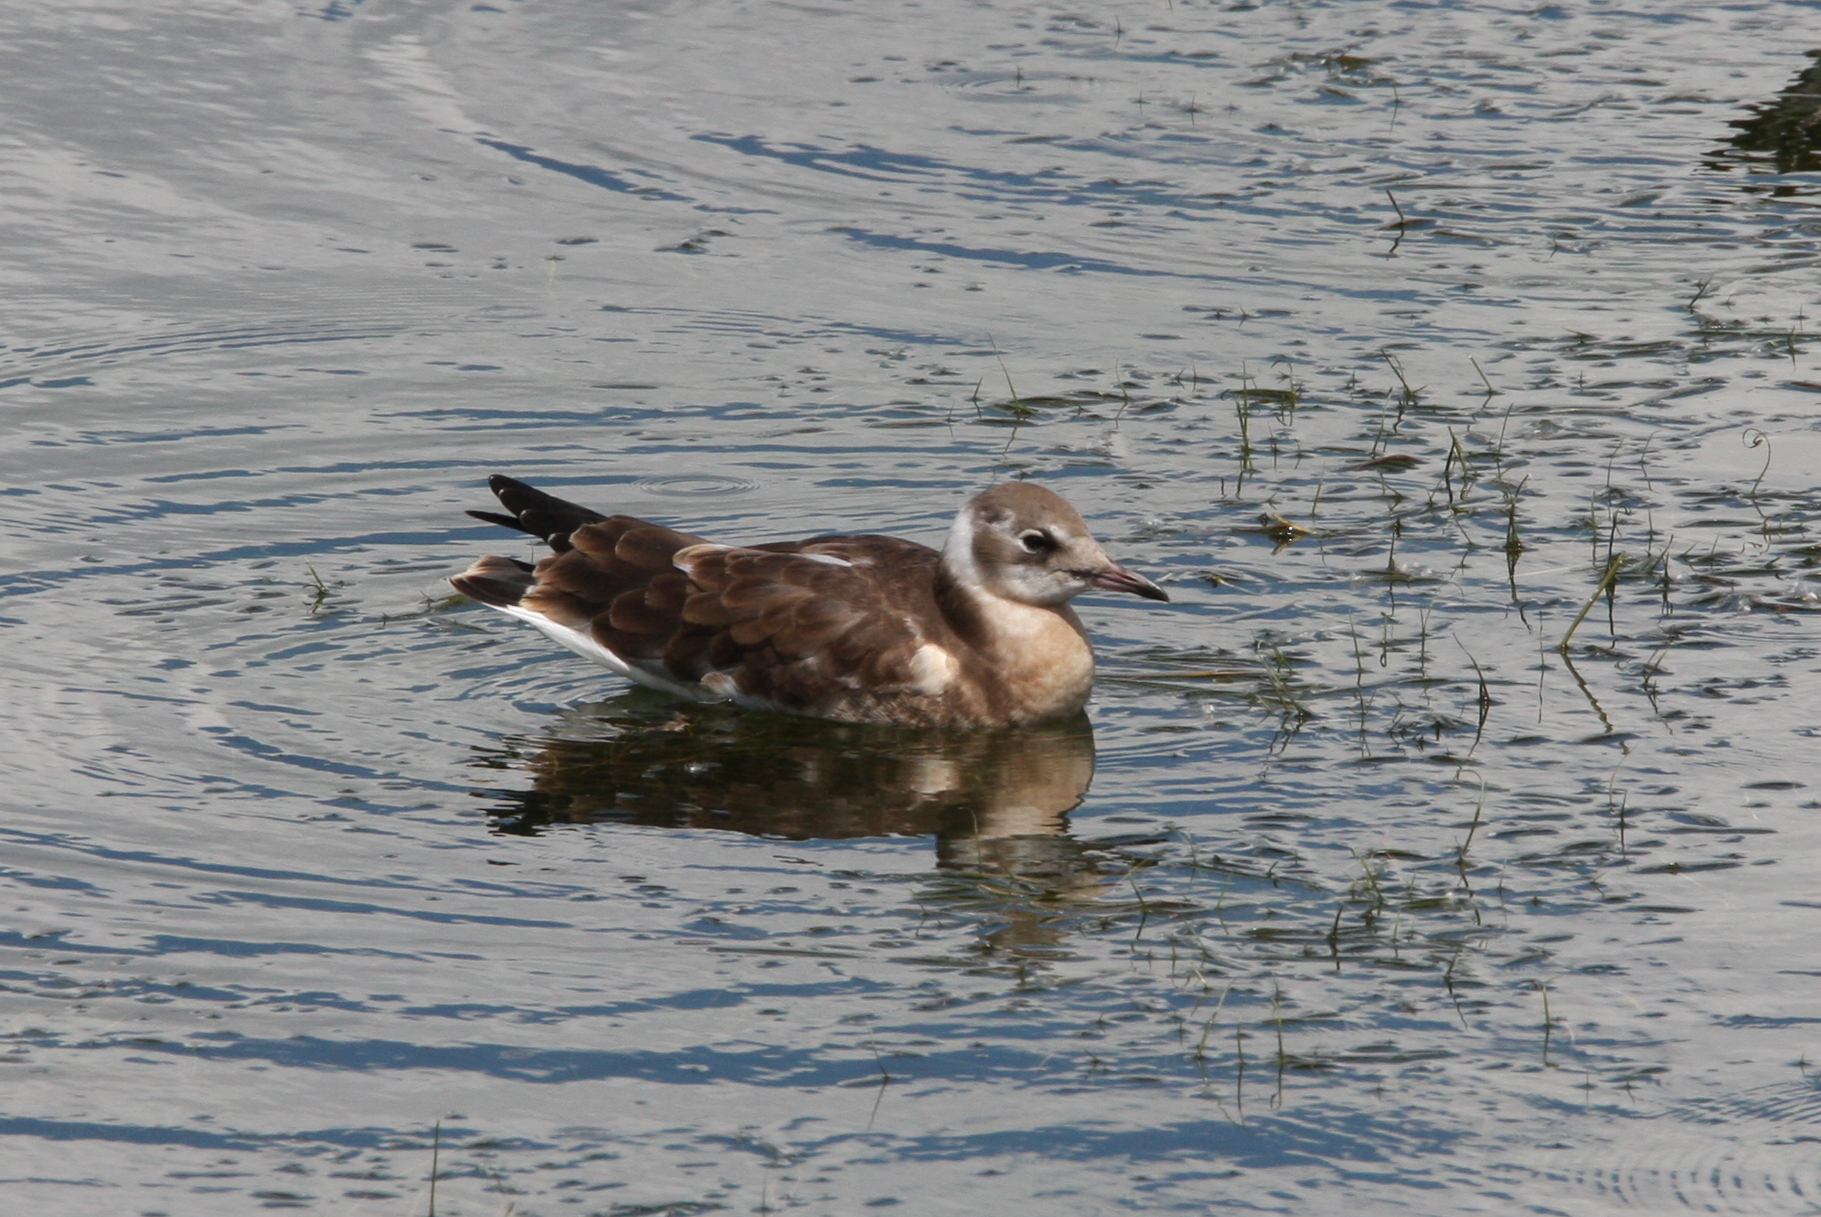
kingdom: Animalia
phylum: Chordata
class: Aves
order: Charadriiformes
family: Laridae
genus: Chroicocephalus
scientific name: Chroicocephalus ridibundus
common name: Black-headed gull
